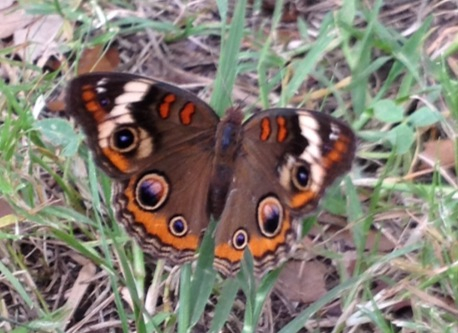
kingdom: Animalia
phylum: Arthropoda
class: Insecta
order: Lepidoptera
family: Nymphalidae
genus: Junonia
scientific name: Junonia coenia
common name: Common buckeye
